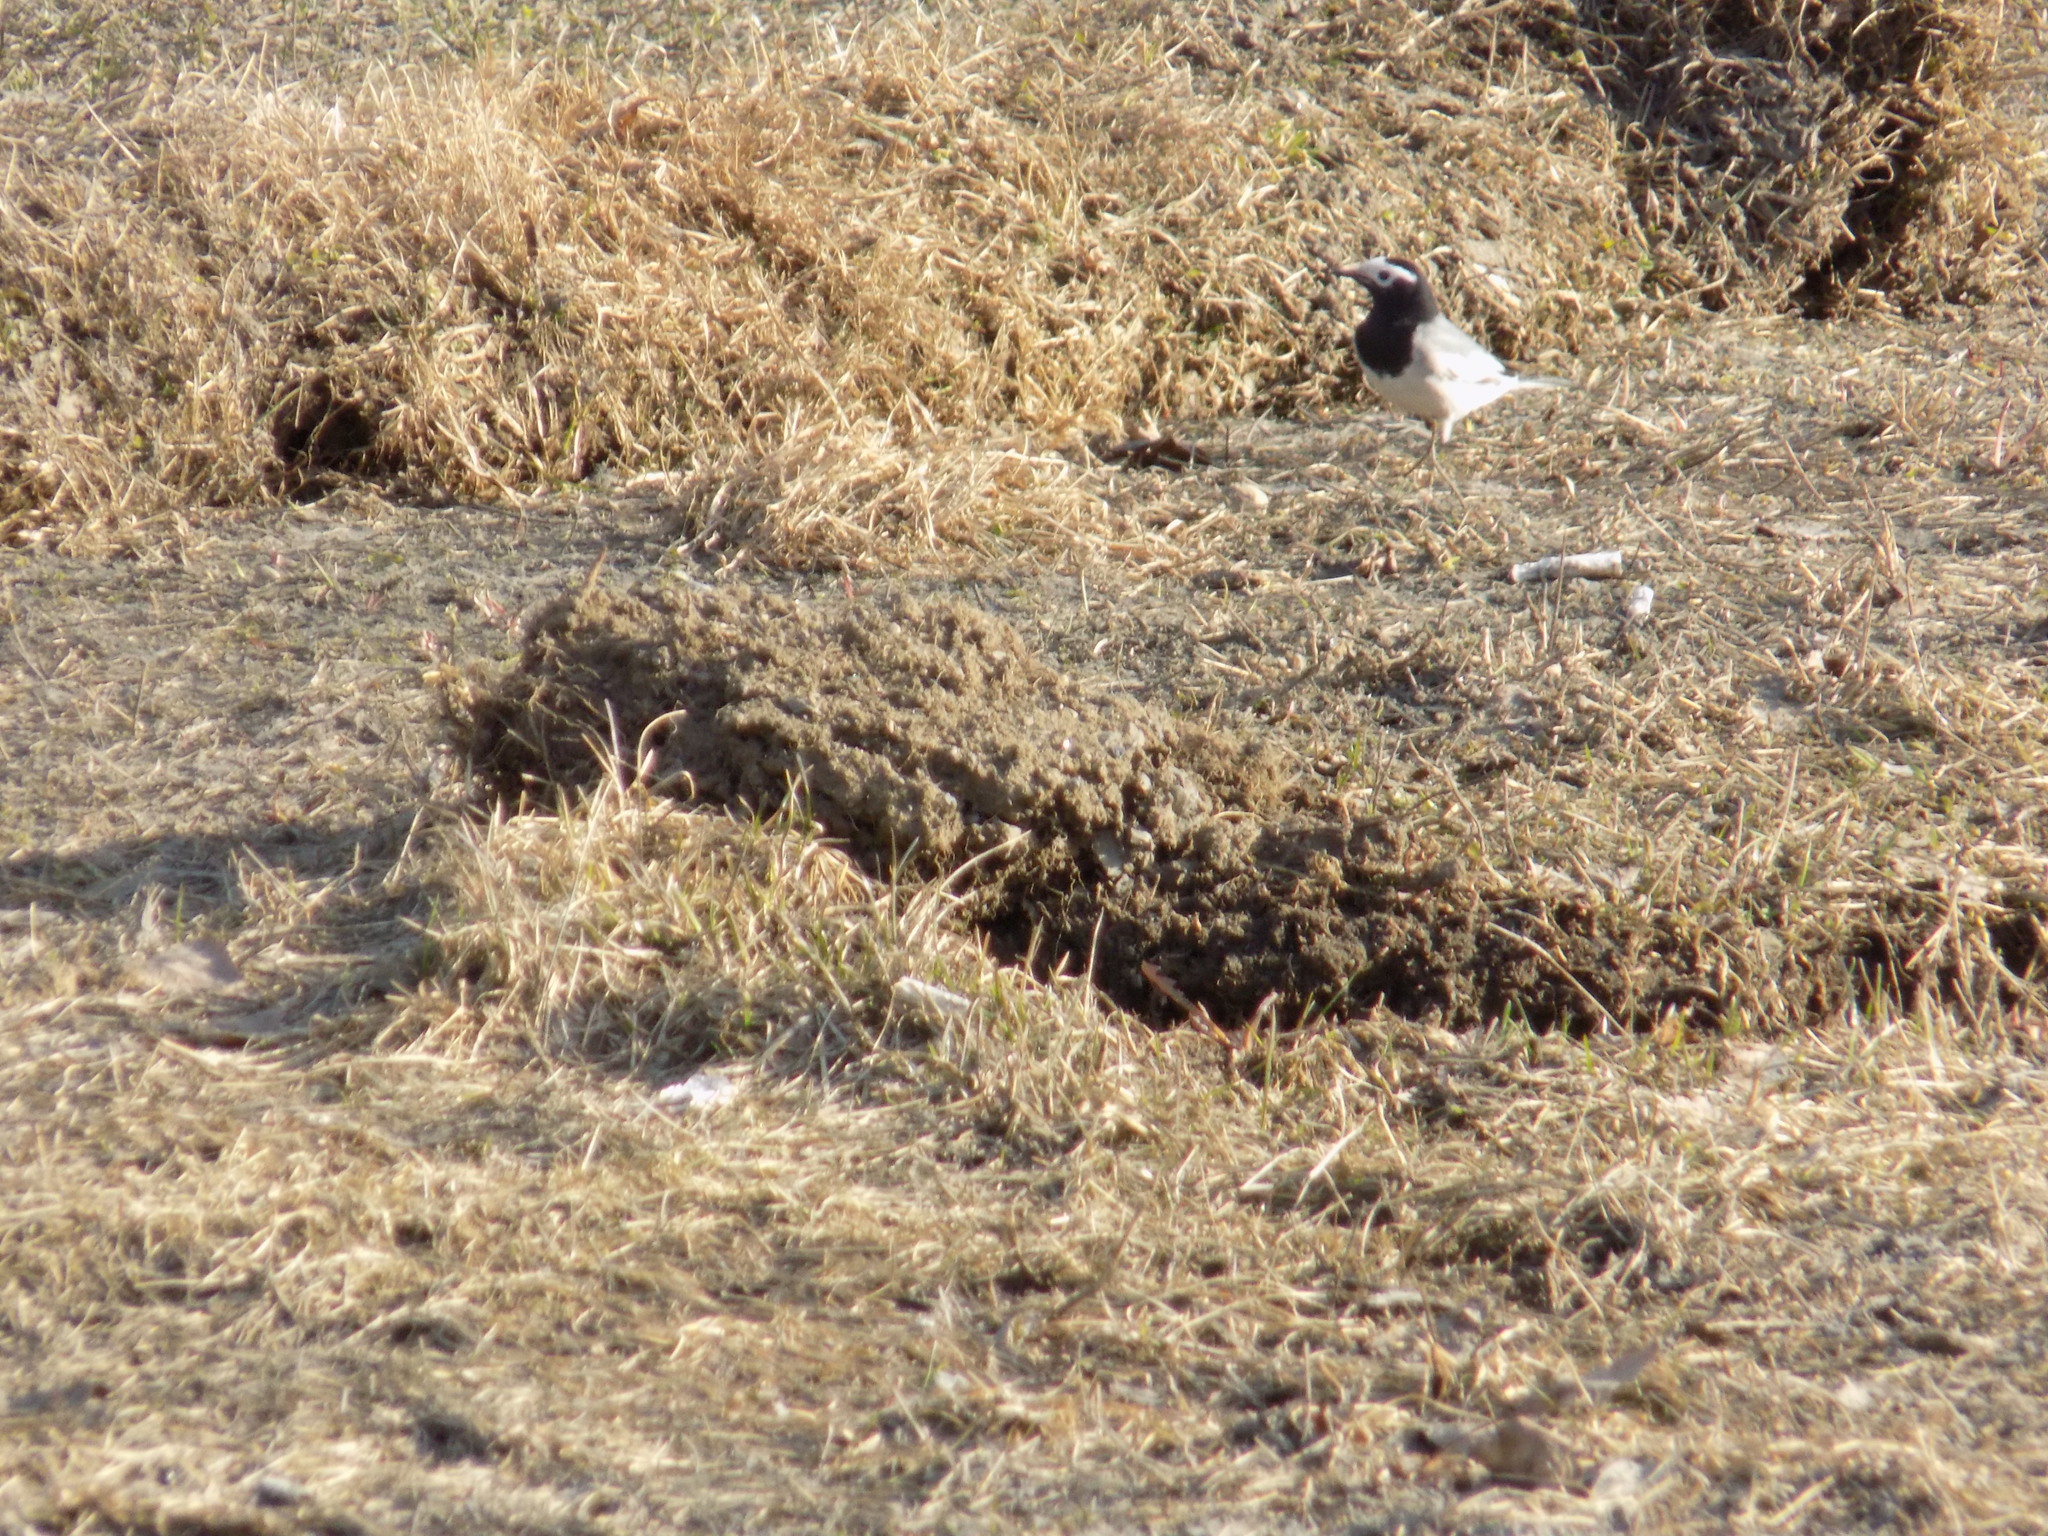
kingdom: Animalia
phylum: Chordata
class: Aves
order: Passeriformes
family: Motacillidae
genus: Motacilla
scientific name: Motacilla alba
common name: White wagtail
